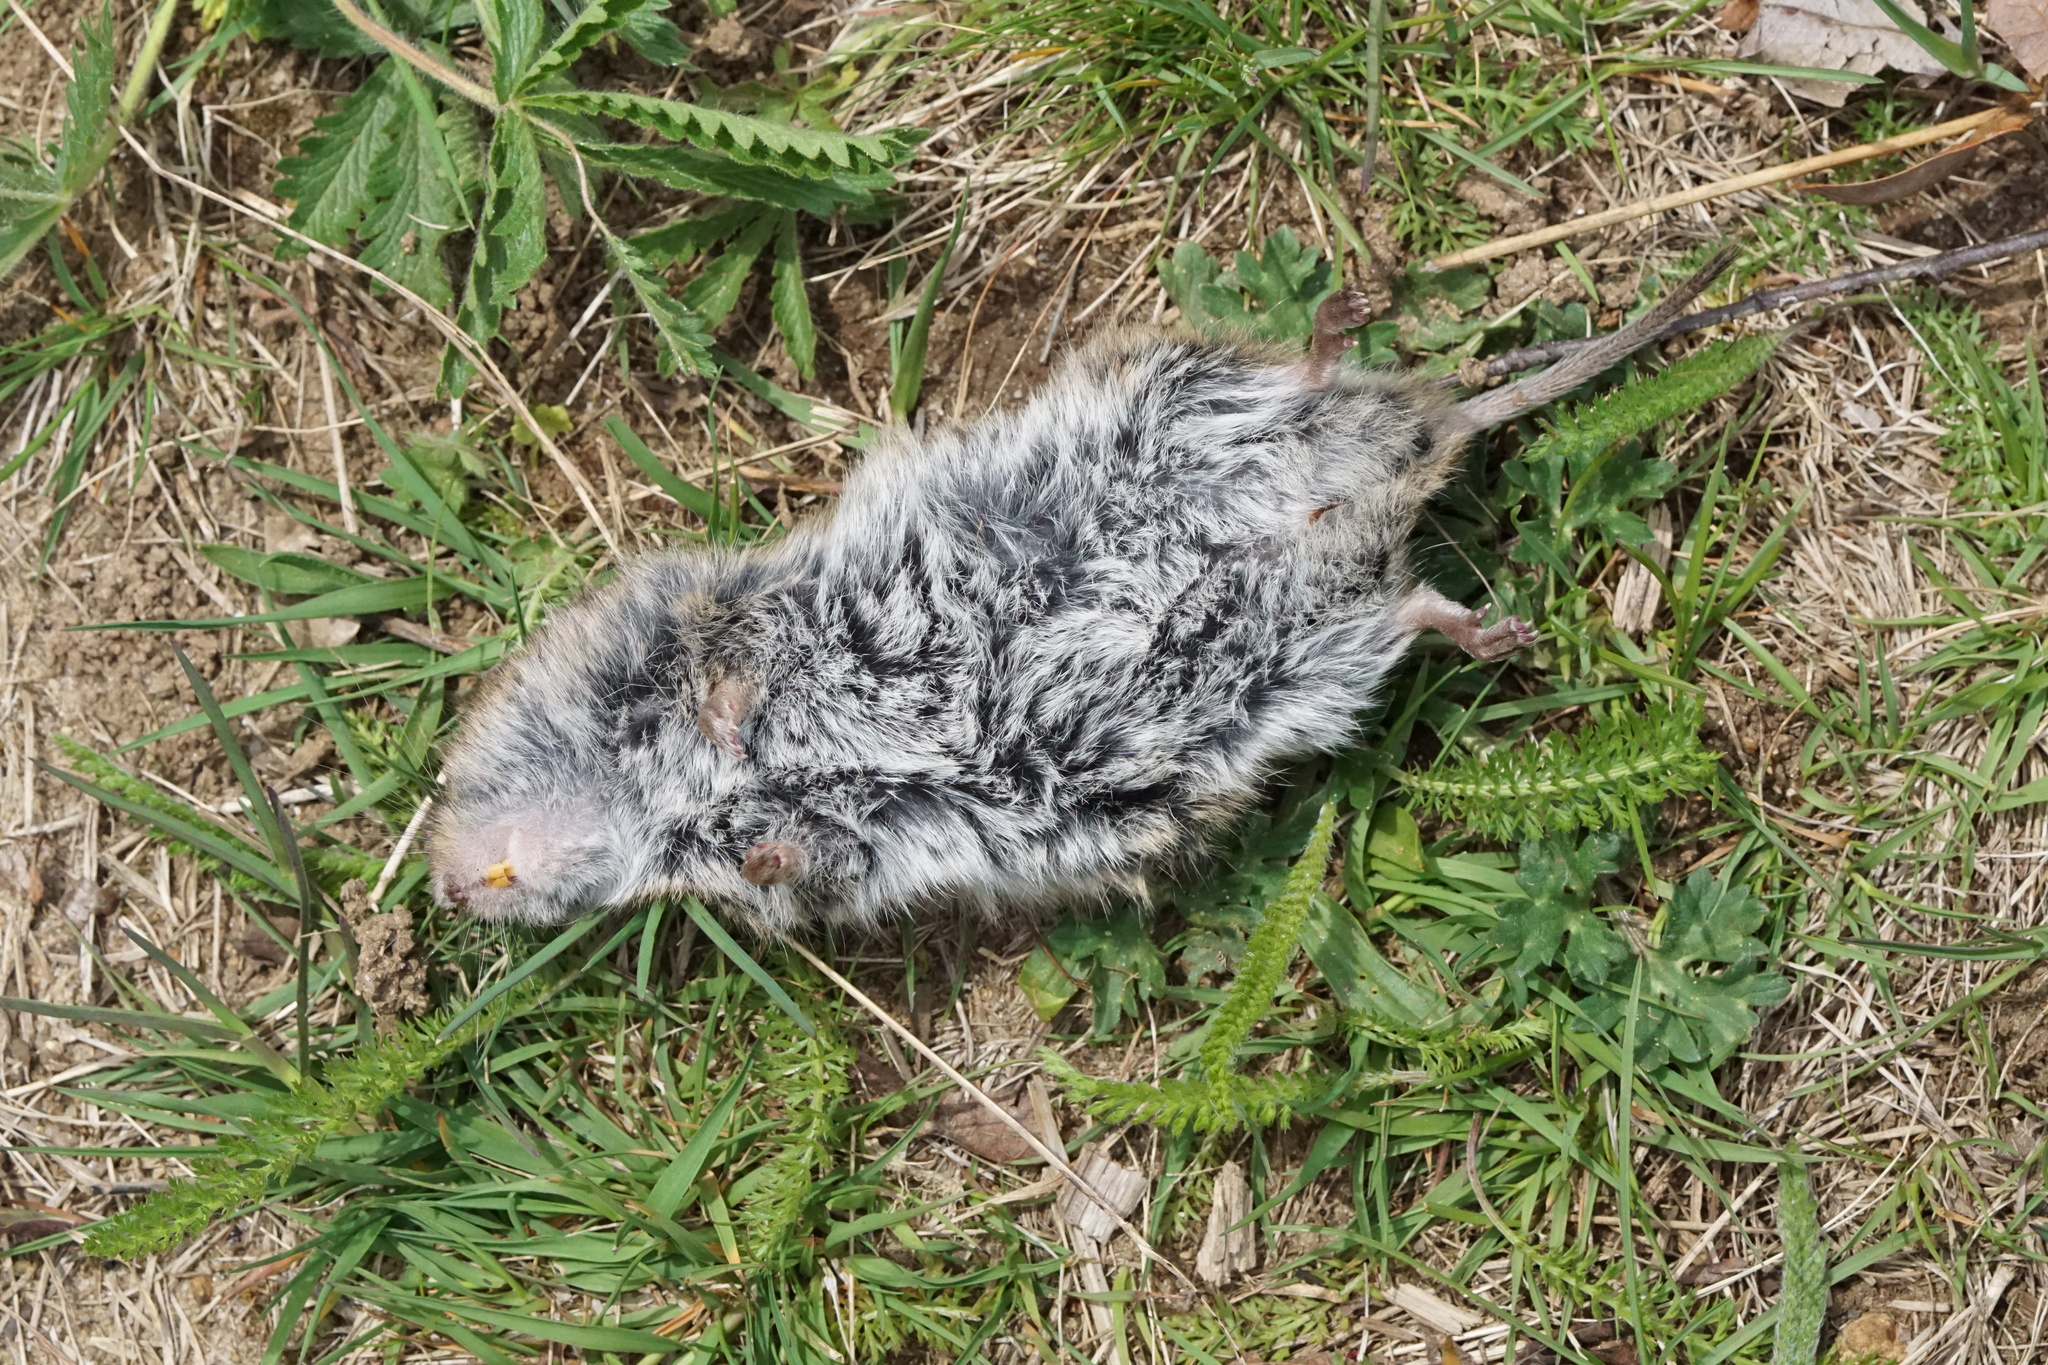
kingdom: Animalia
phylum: Chordata
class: Mammalia
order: Rodentia
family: Cricetidae
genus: Microtus
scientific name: Microtus pennsylvanicus
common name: Meadow vole
